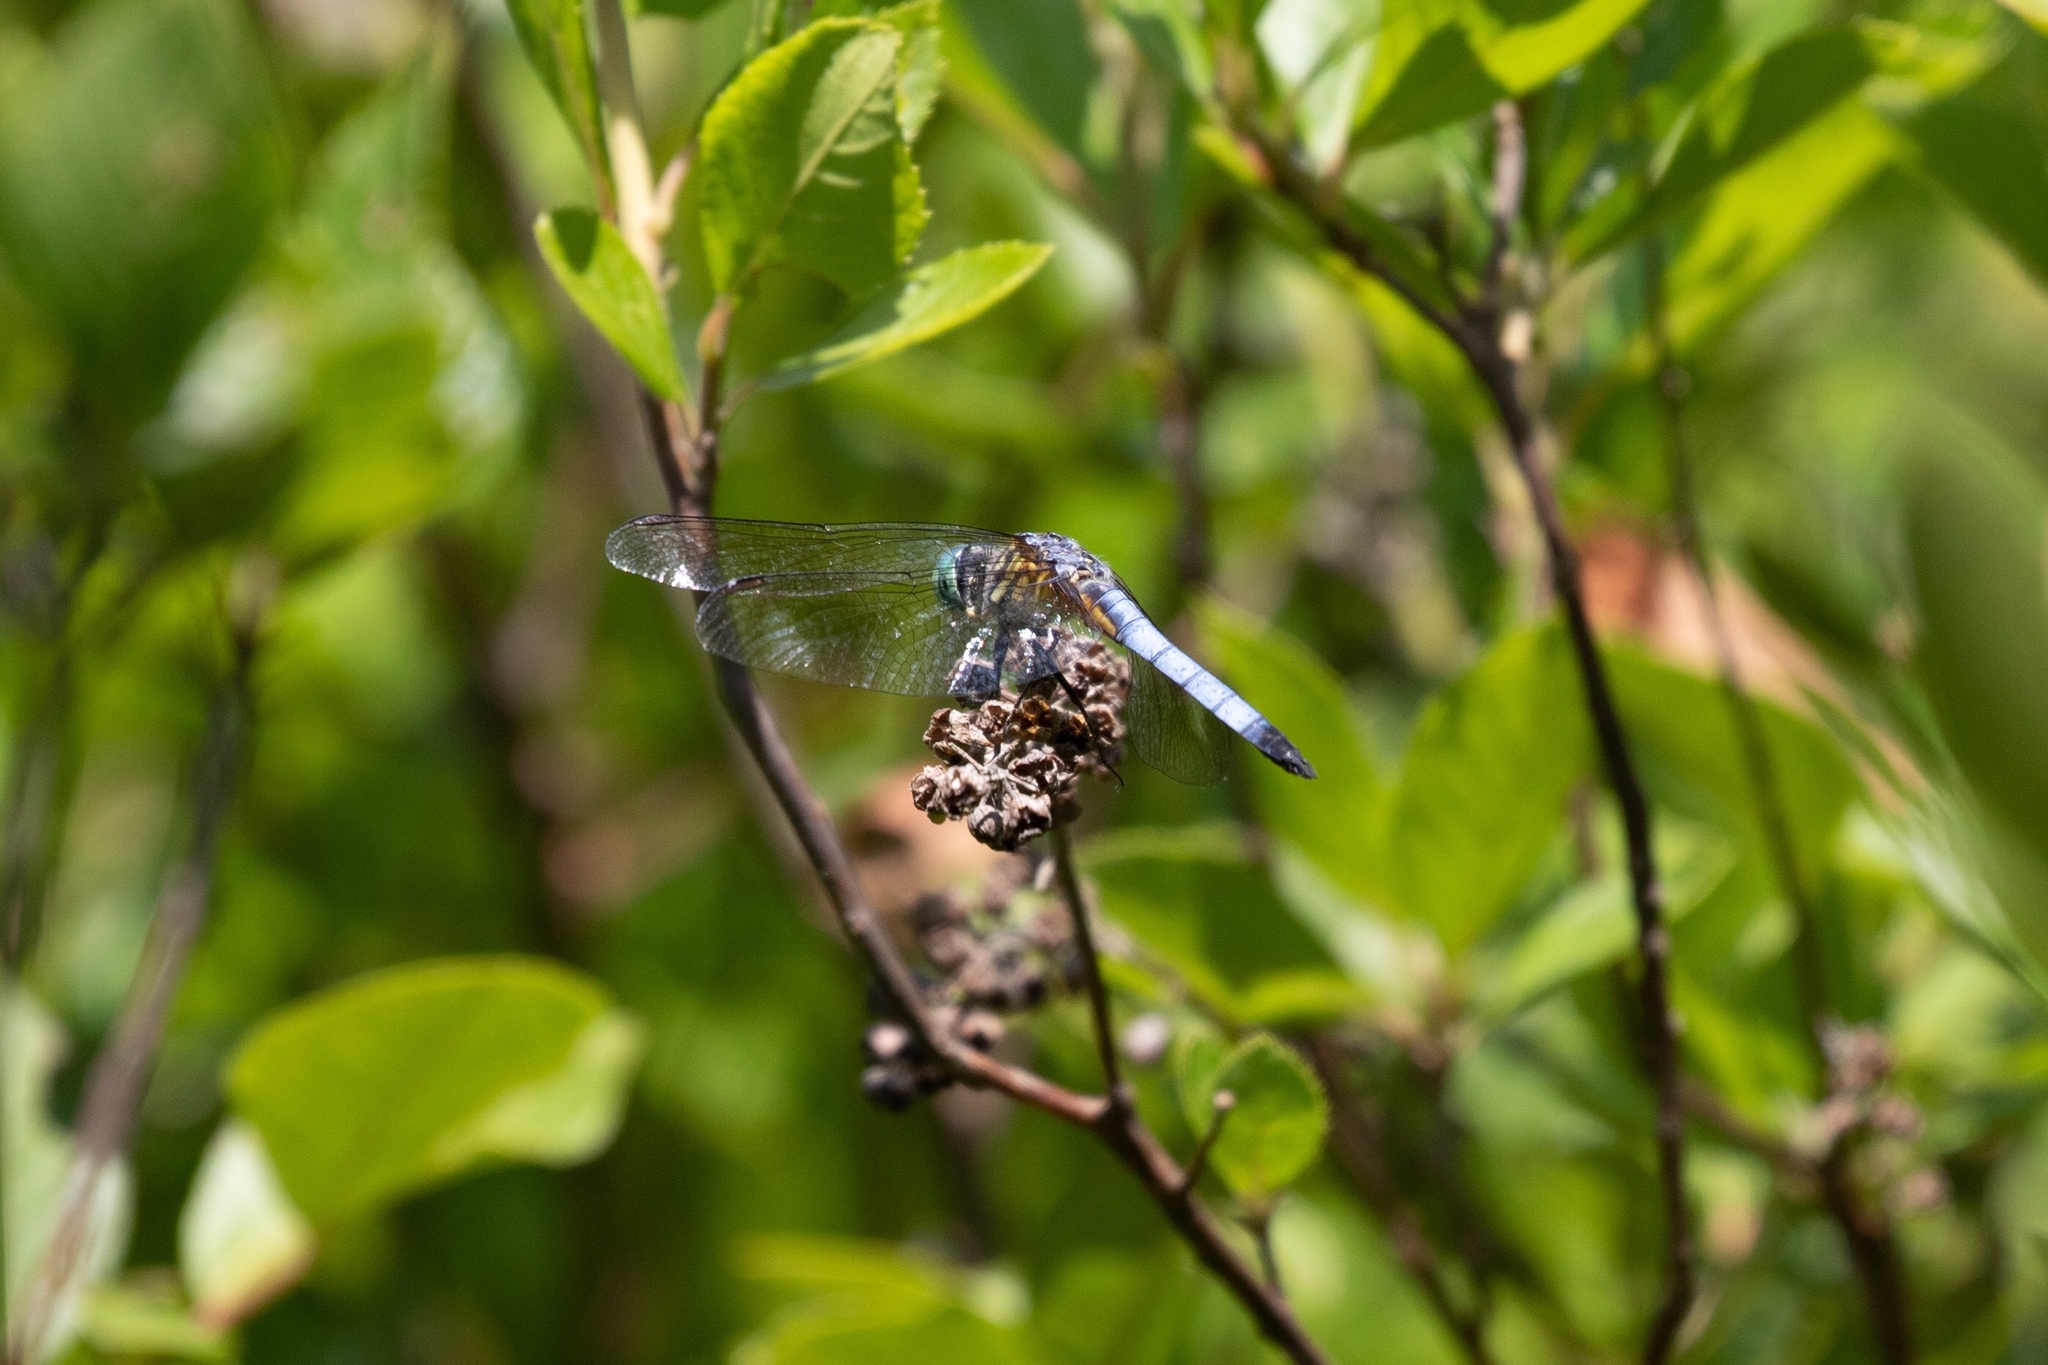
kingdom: Animalia
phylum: Arthropoda
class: Insecta
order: Odonata
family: Libellulidae
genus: Pachydiplax
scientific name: Pachydiplax longipennis
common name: Blue dasher
